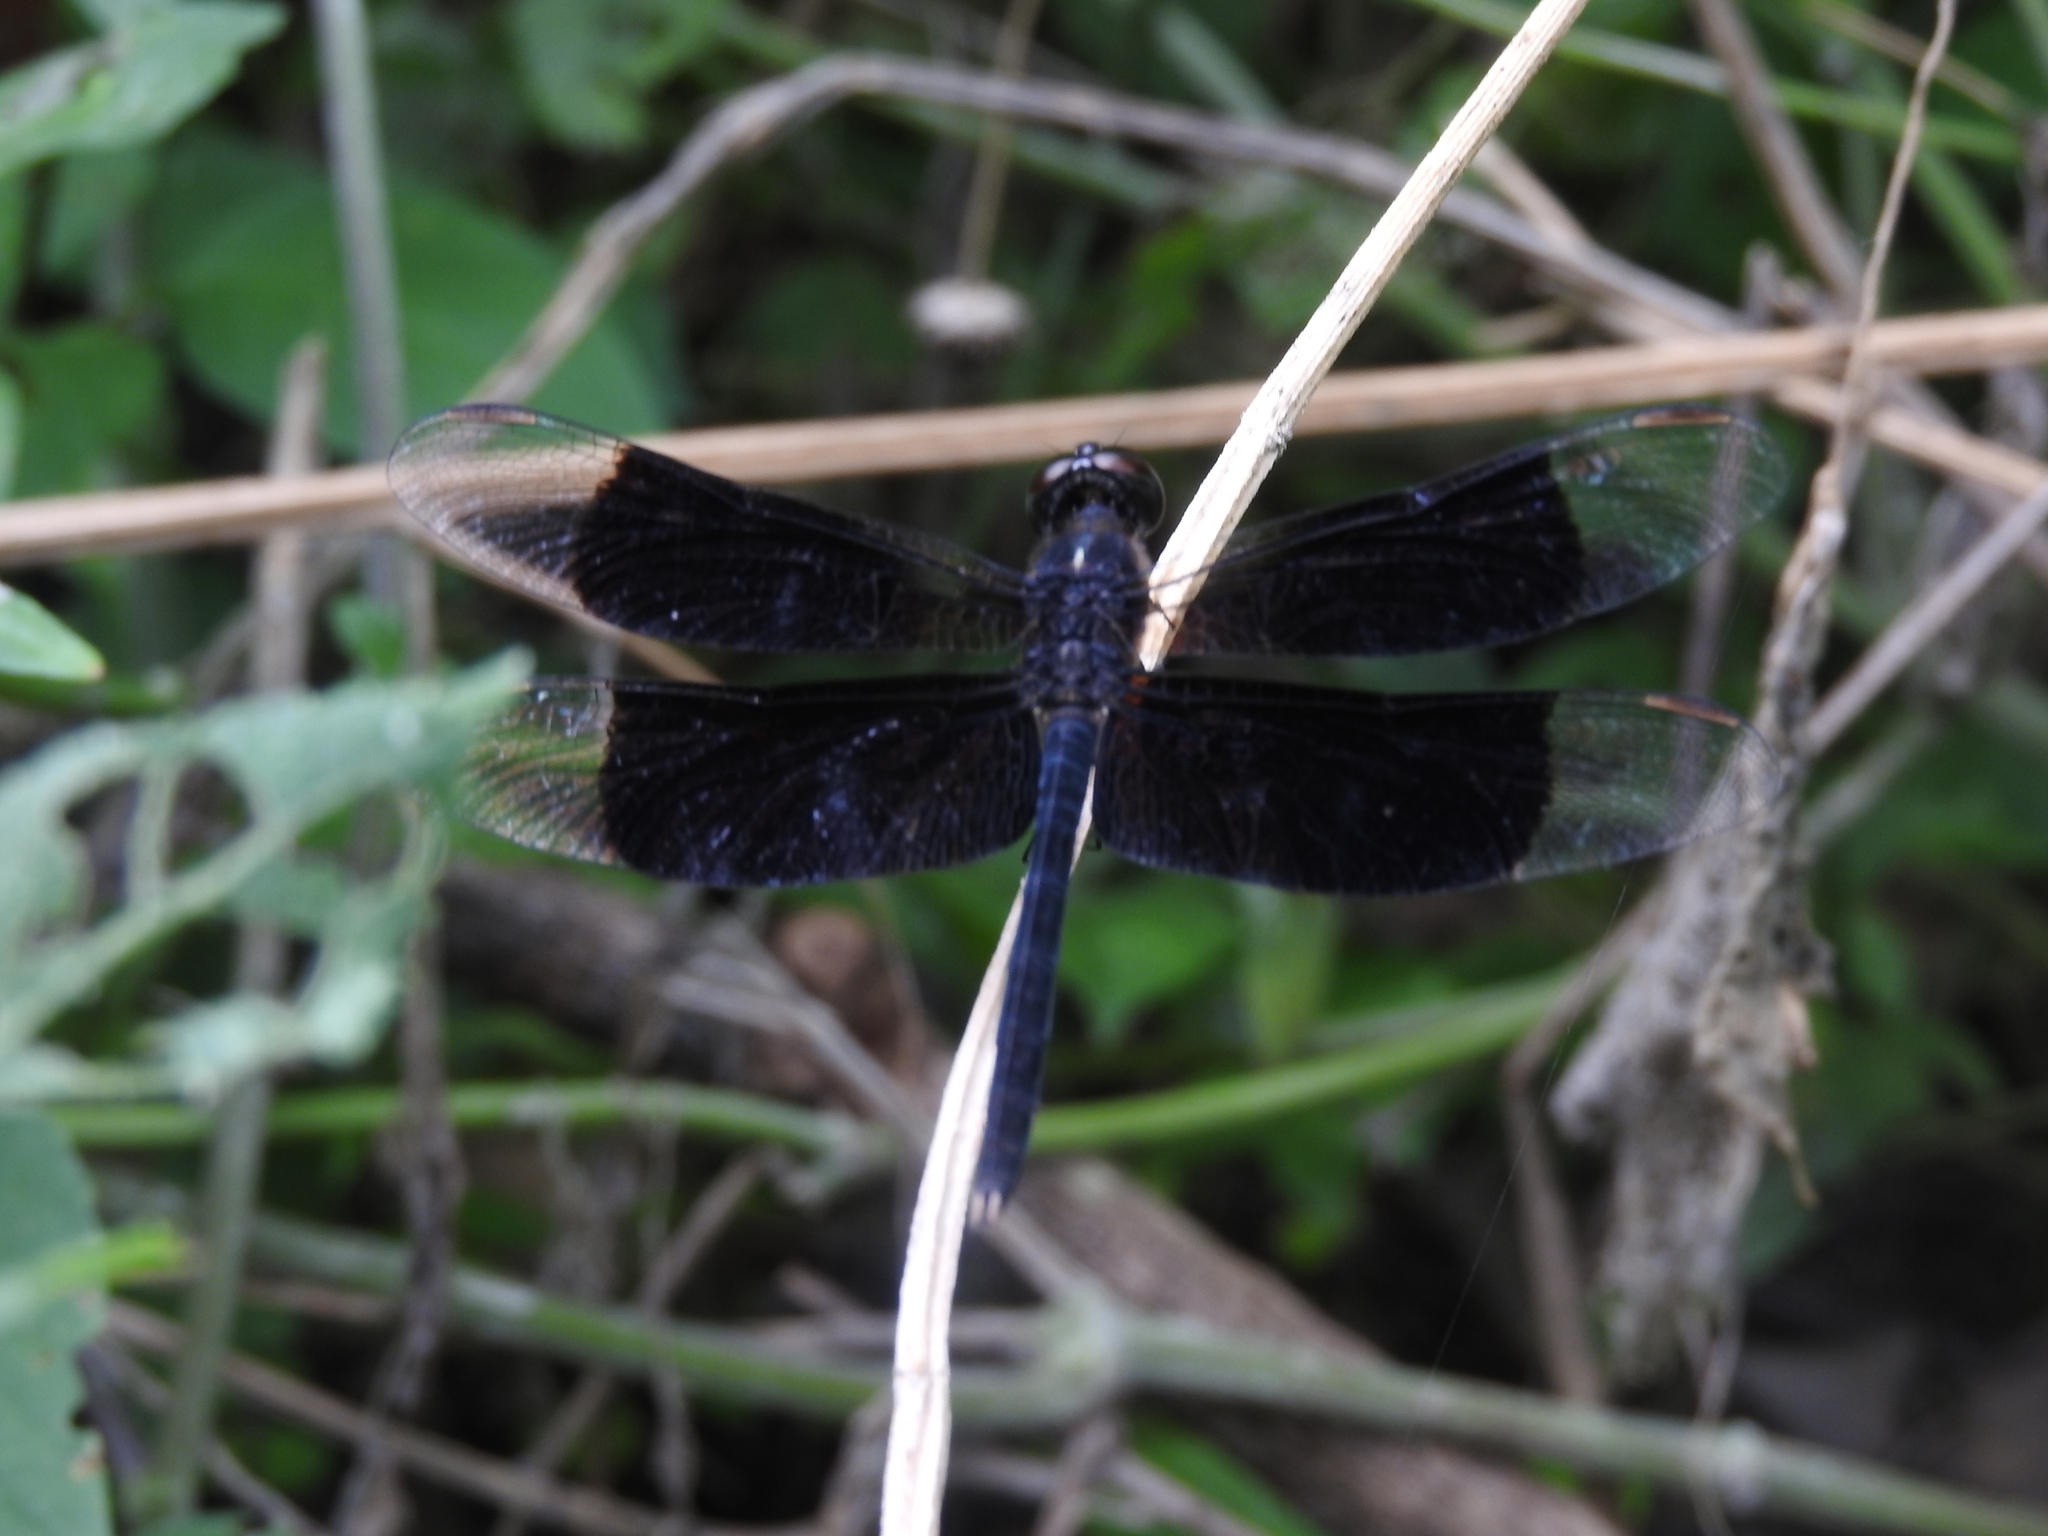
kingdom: Animalia
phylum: Arthropoda
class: Insecta
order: Odonata
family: Libellulidae
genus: Erythrodiplax
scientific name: Erythrodiplax funerea
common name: Black-winged dragonlet
